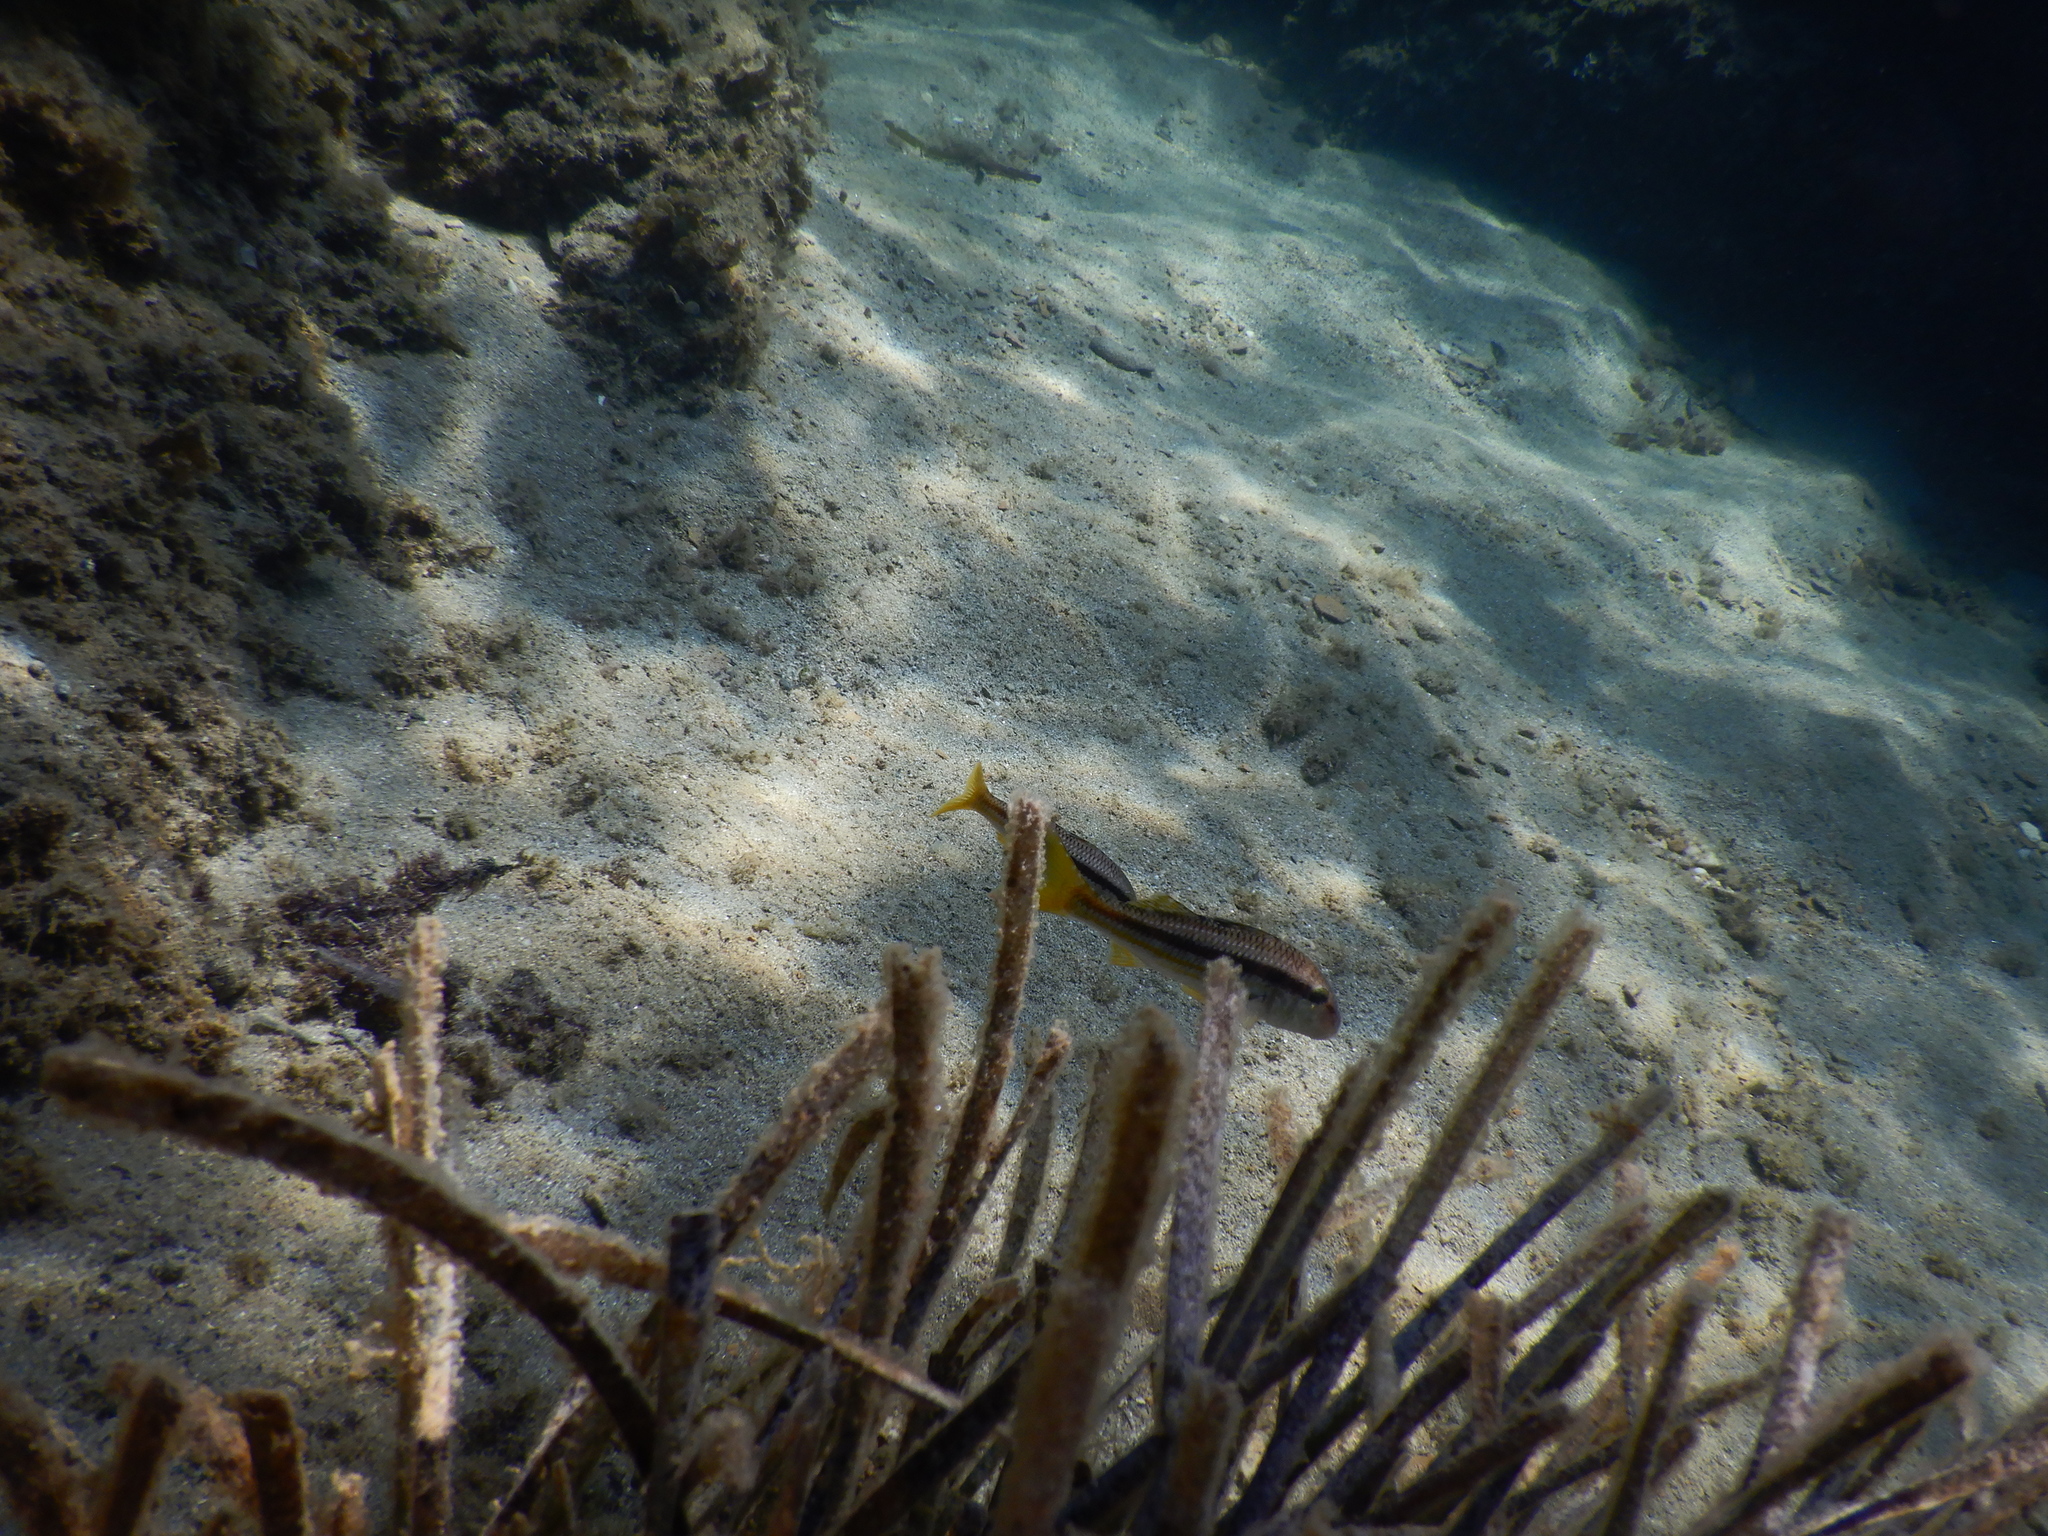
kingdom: Animalia
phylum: Chordata
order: Perciformes
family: Mullidae
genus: Mullus
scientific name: Mullus surmuletus
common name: Red mullet
